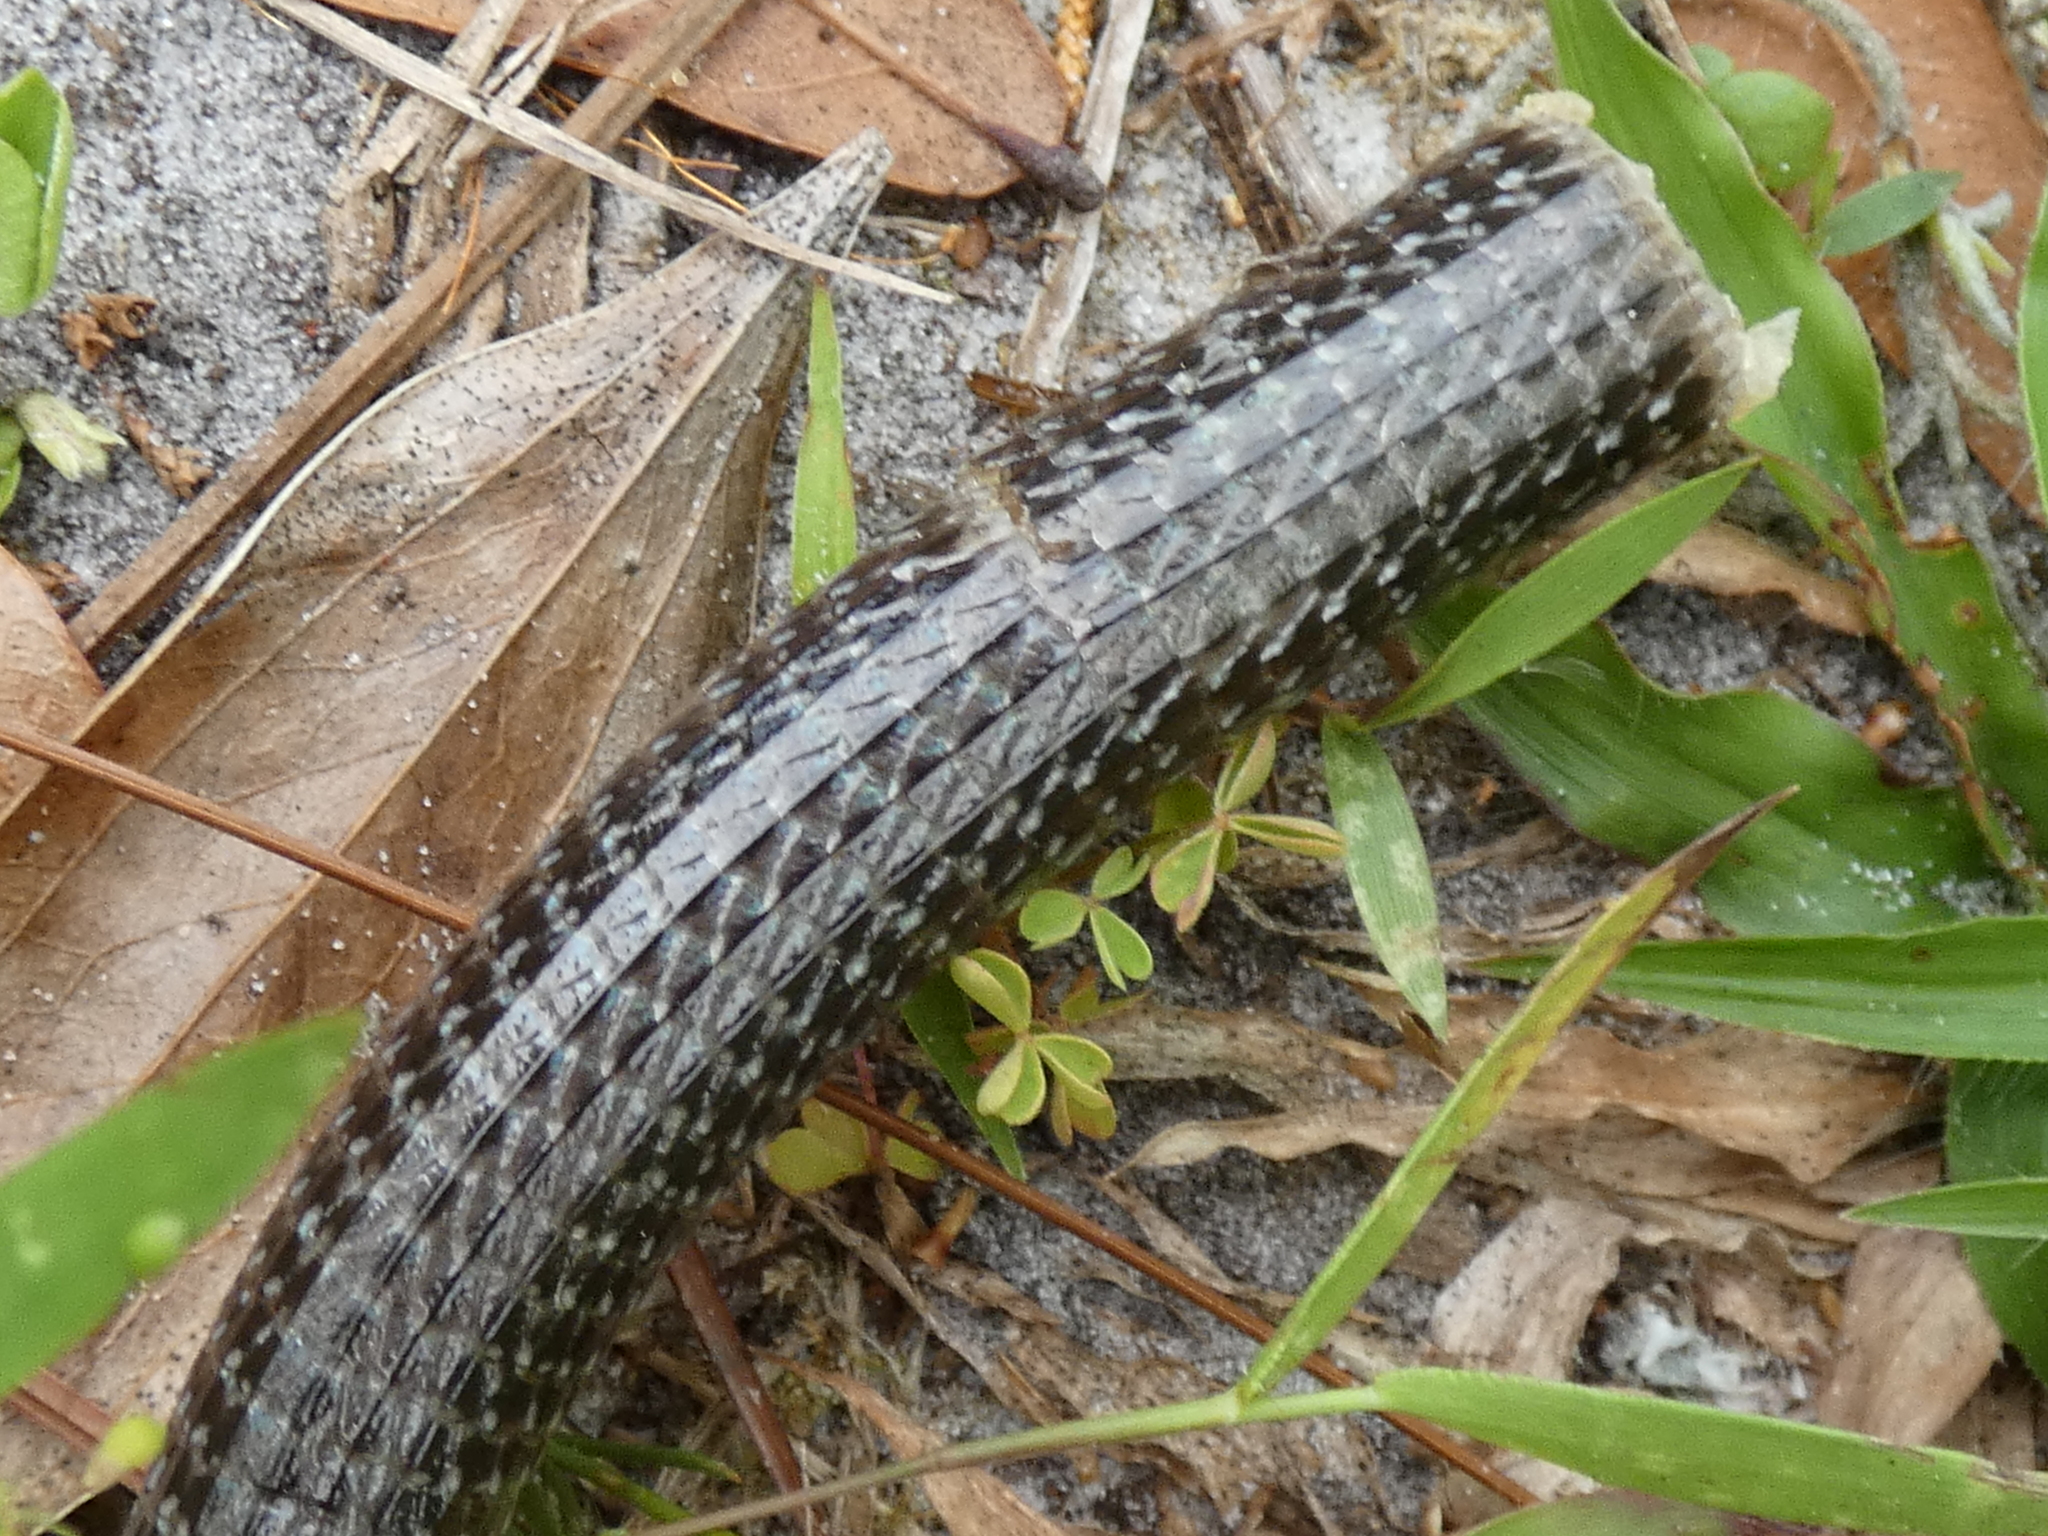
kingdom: Animalia
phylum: Chordata
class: Squamata
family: Anguidae
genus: Ophisaurus
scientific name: Ophisaurus ventralis
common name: Eastern glass lizard
